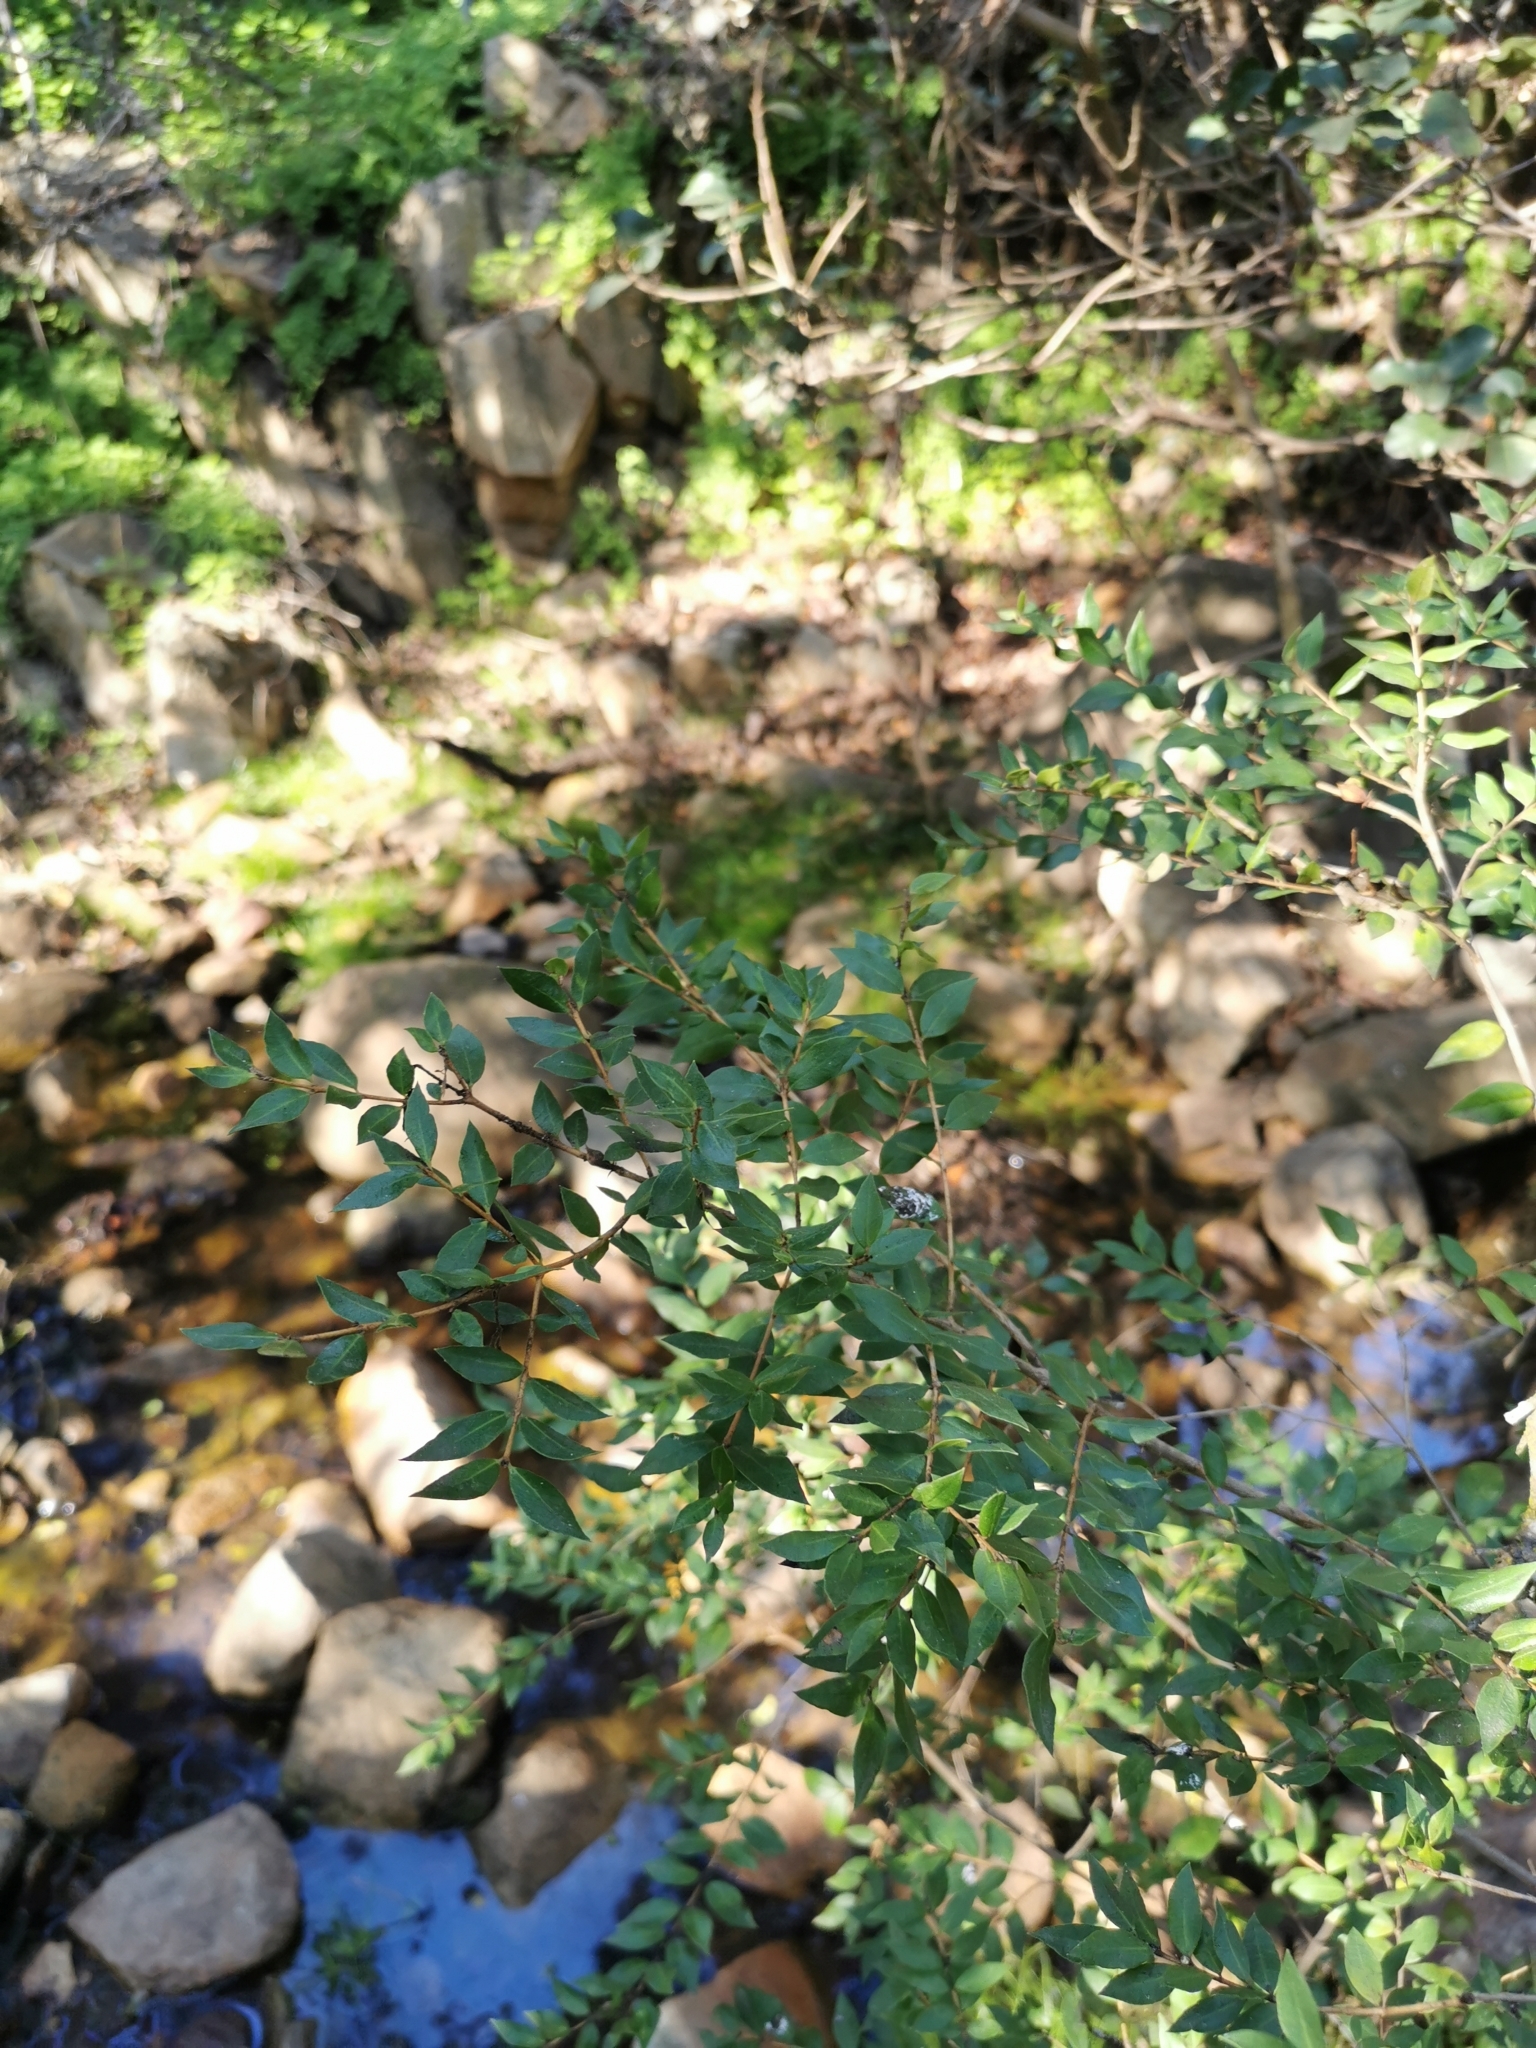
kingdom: Plantae
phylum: Tracheophyta
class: Magnoliopsida
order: Myrtales
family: Myrtaceae
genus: Luma
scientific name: Luma chequen
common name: Cheken
